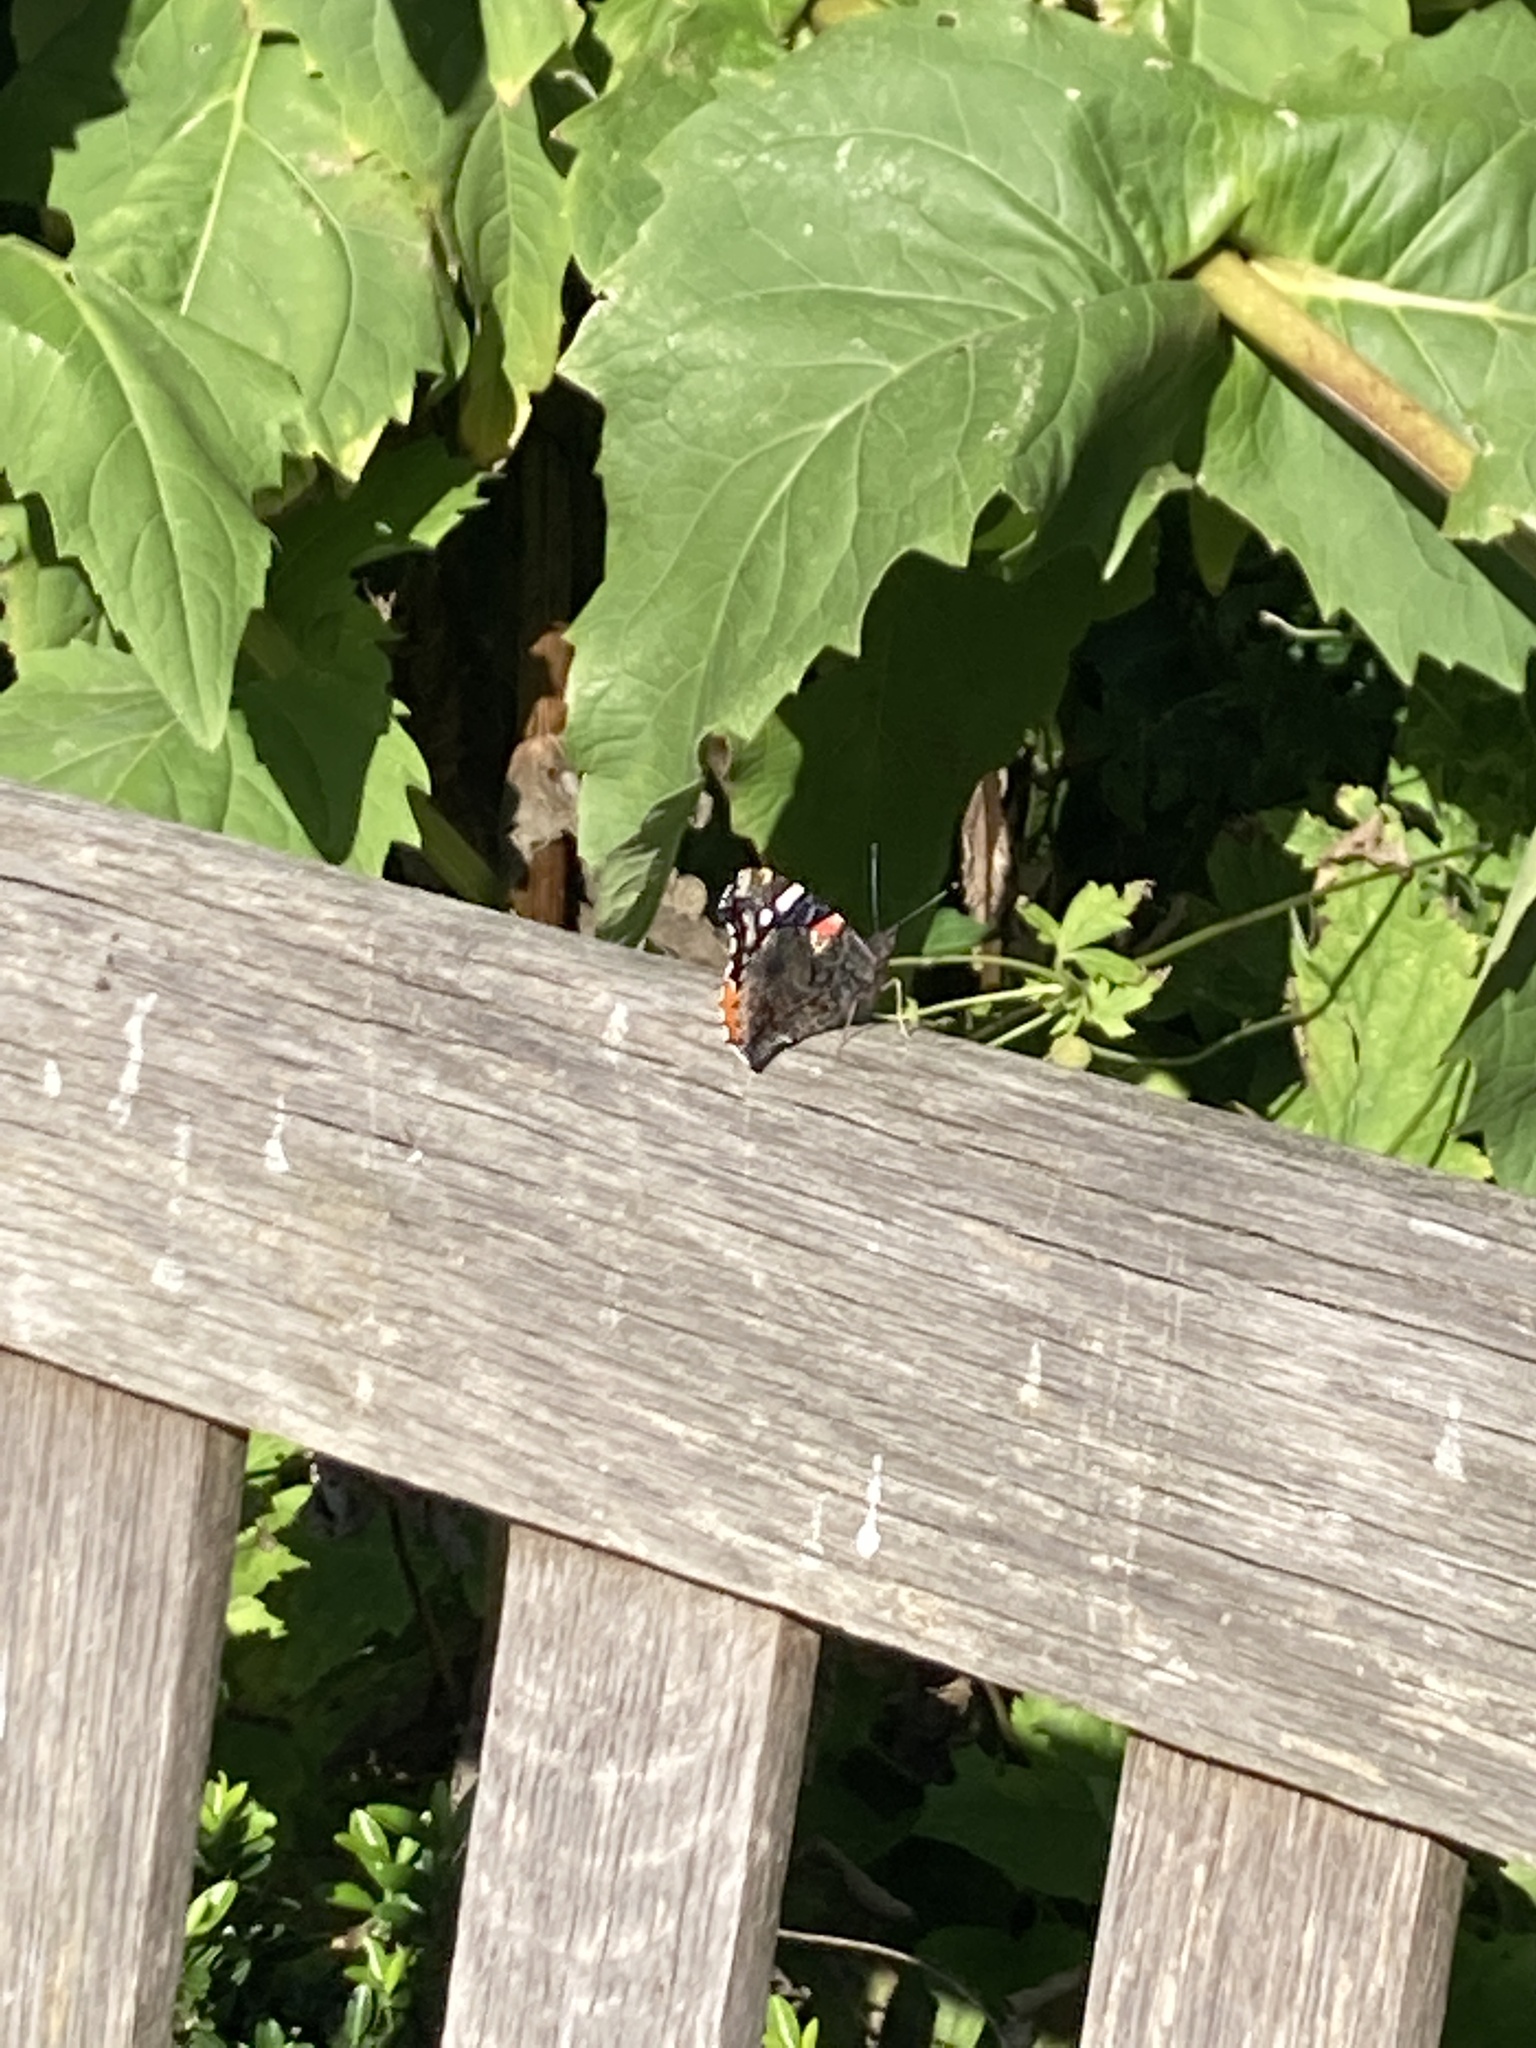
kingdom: Animalia
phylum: Arthropoda
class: Insecta
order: Lepidoptera
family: Nymphalidae
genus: Vanessa
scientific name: Vanessa atalanta
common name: Red admiral
